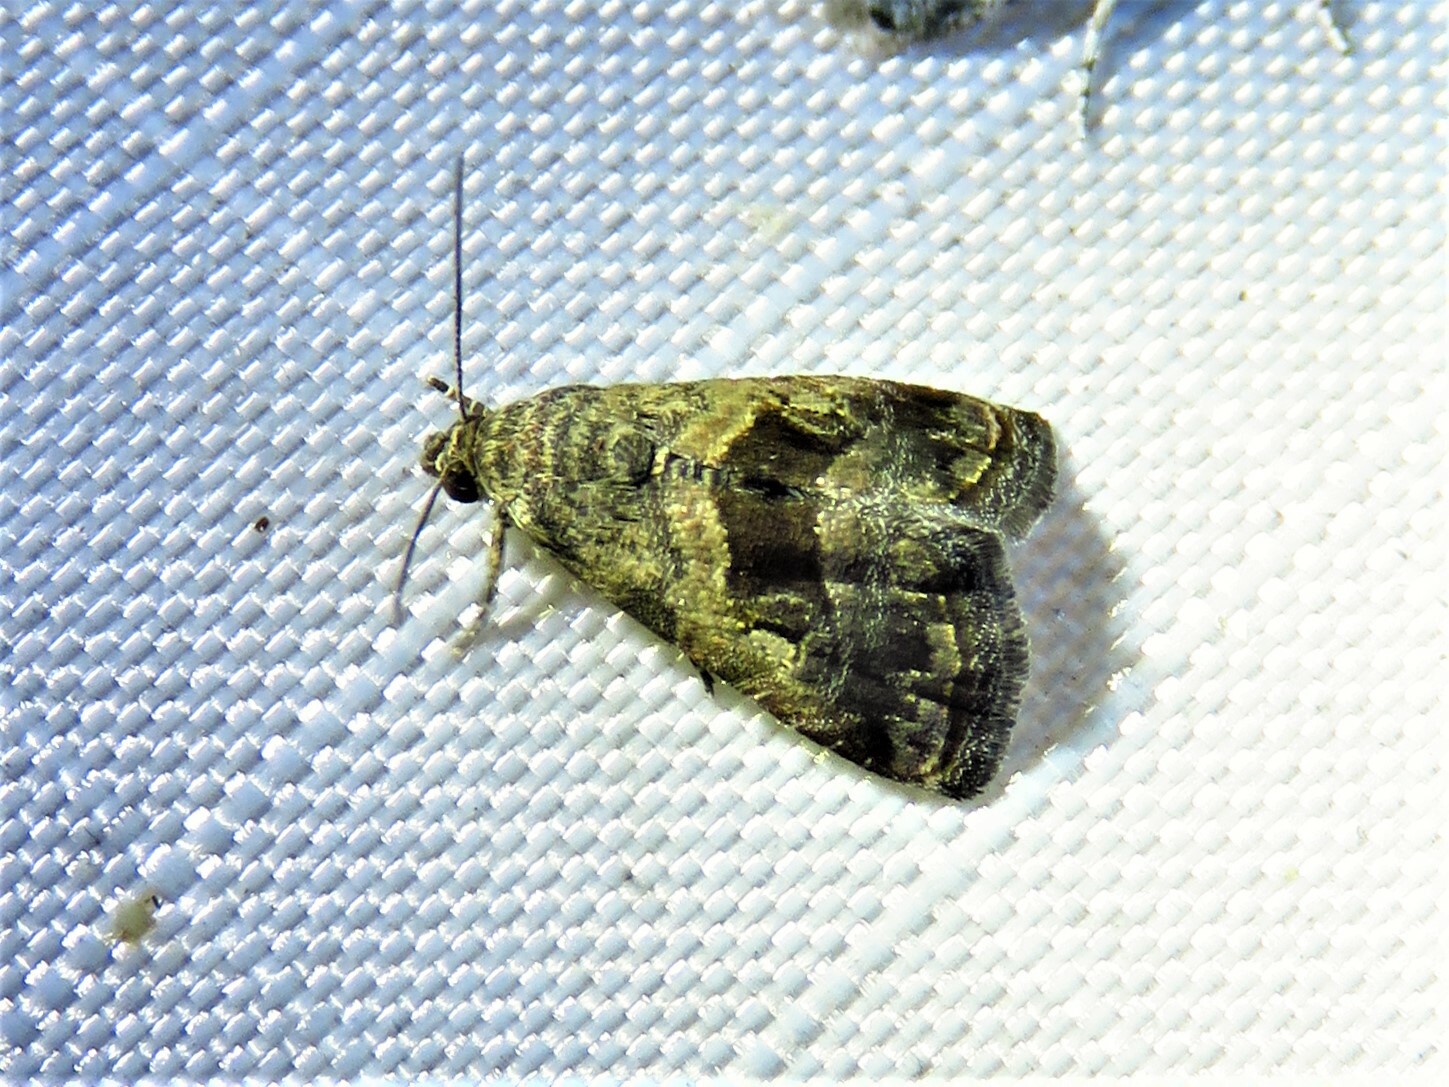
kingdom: Animalia
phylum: Arthropoda
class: Insecta
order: Lepidoptera
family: Noctuidae
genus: Tripudia
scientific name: Tripudia quadrifera
